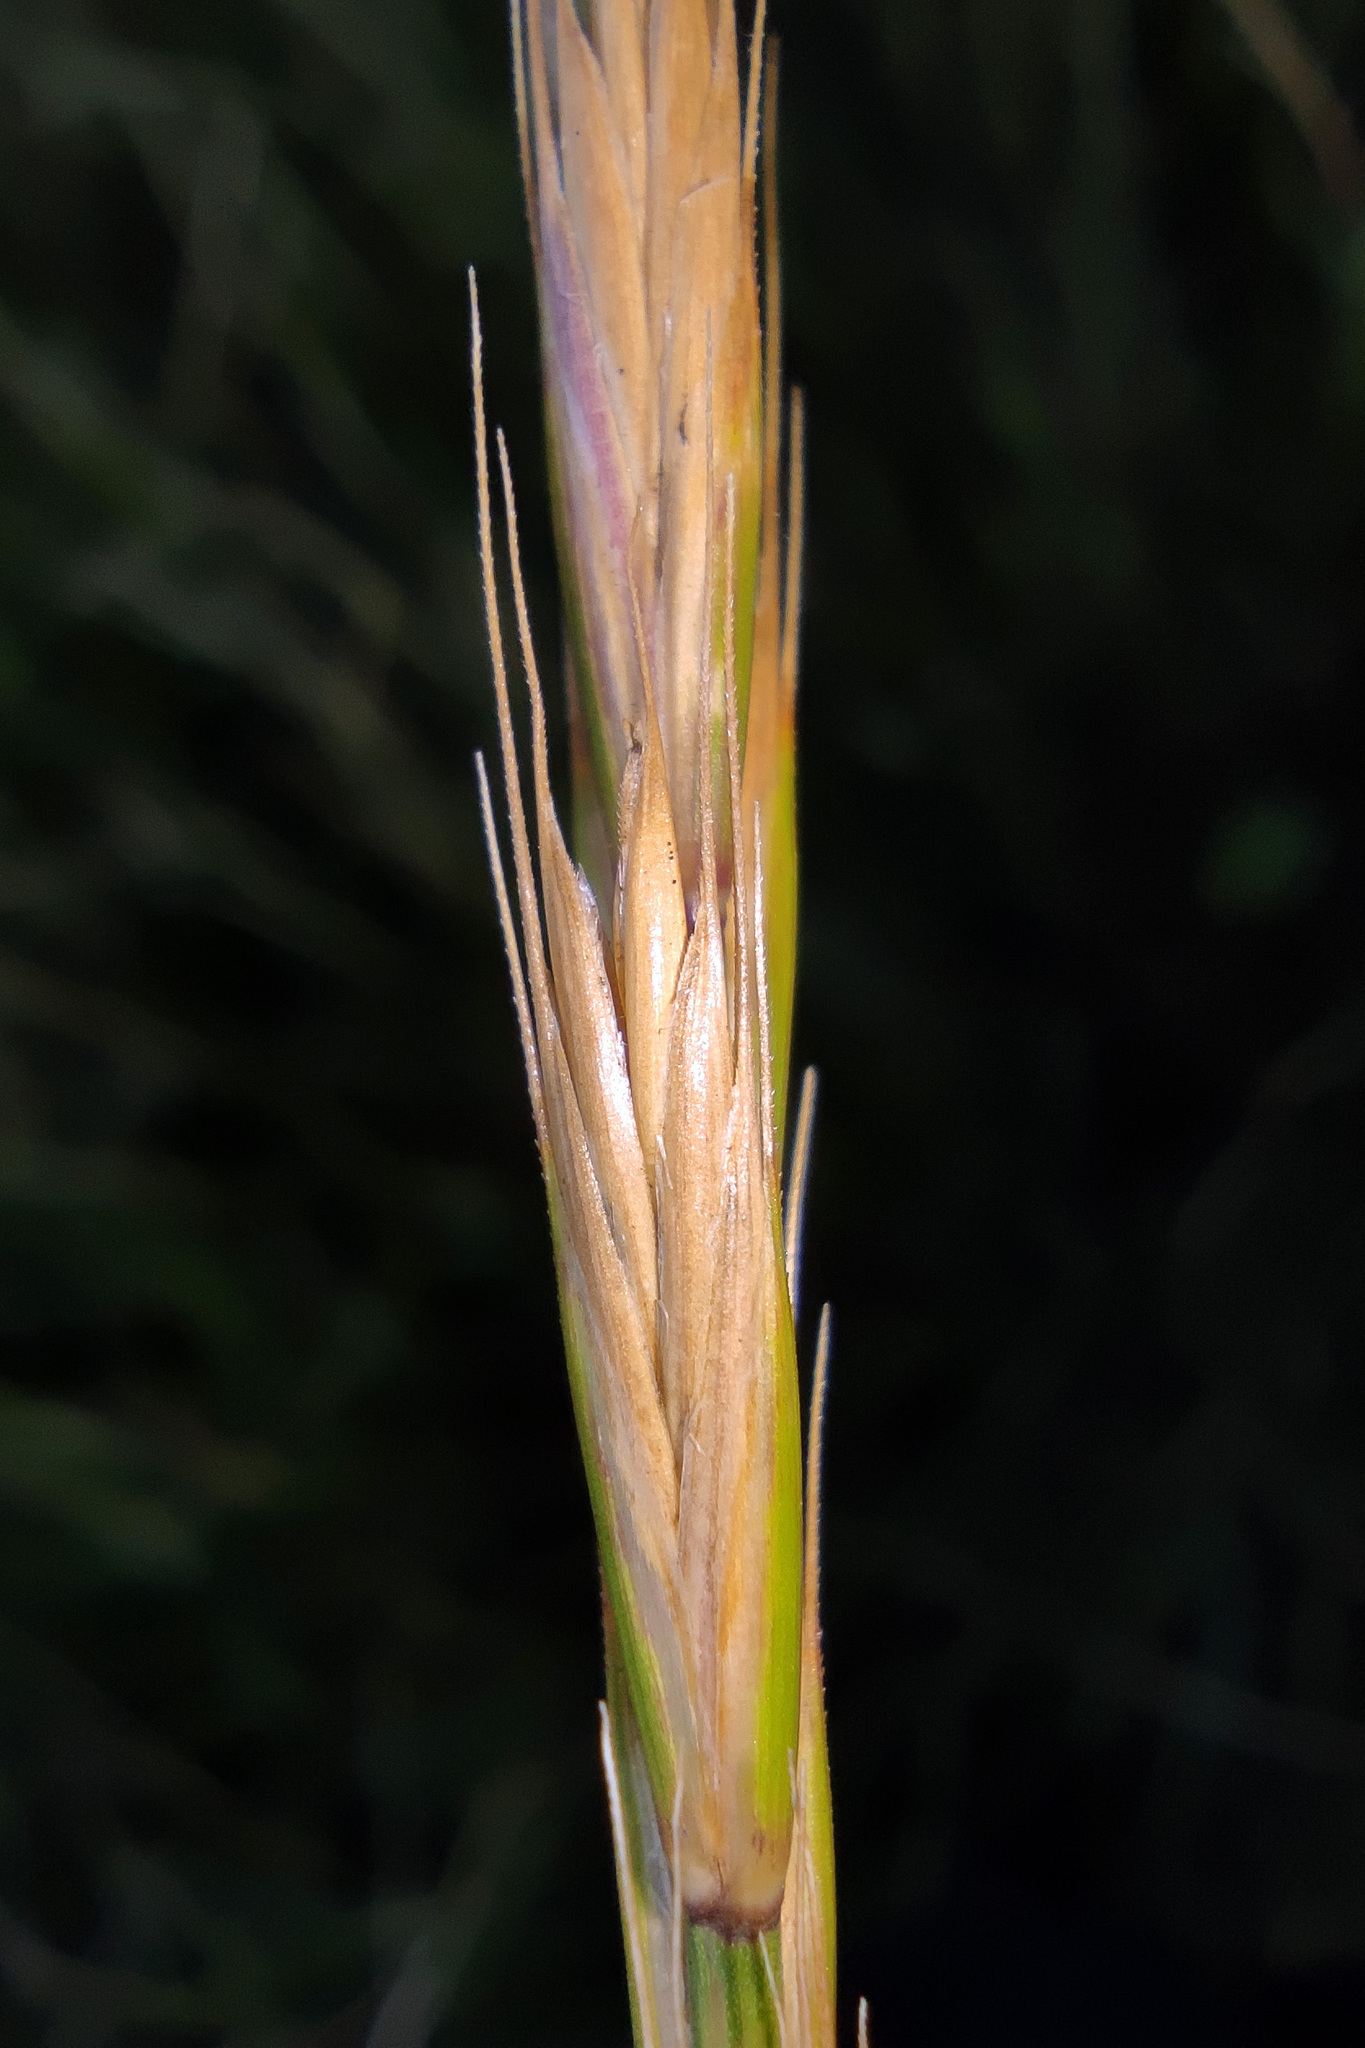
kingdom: Plantae
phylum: Tracheophyta
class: Liliopsida
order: Poales
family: Poaceae
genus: Elymus
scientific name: Elymus repens
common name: Quackgrass
